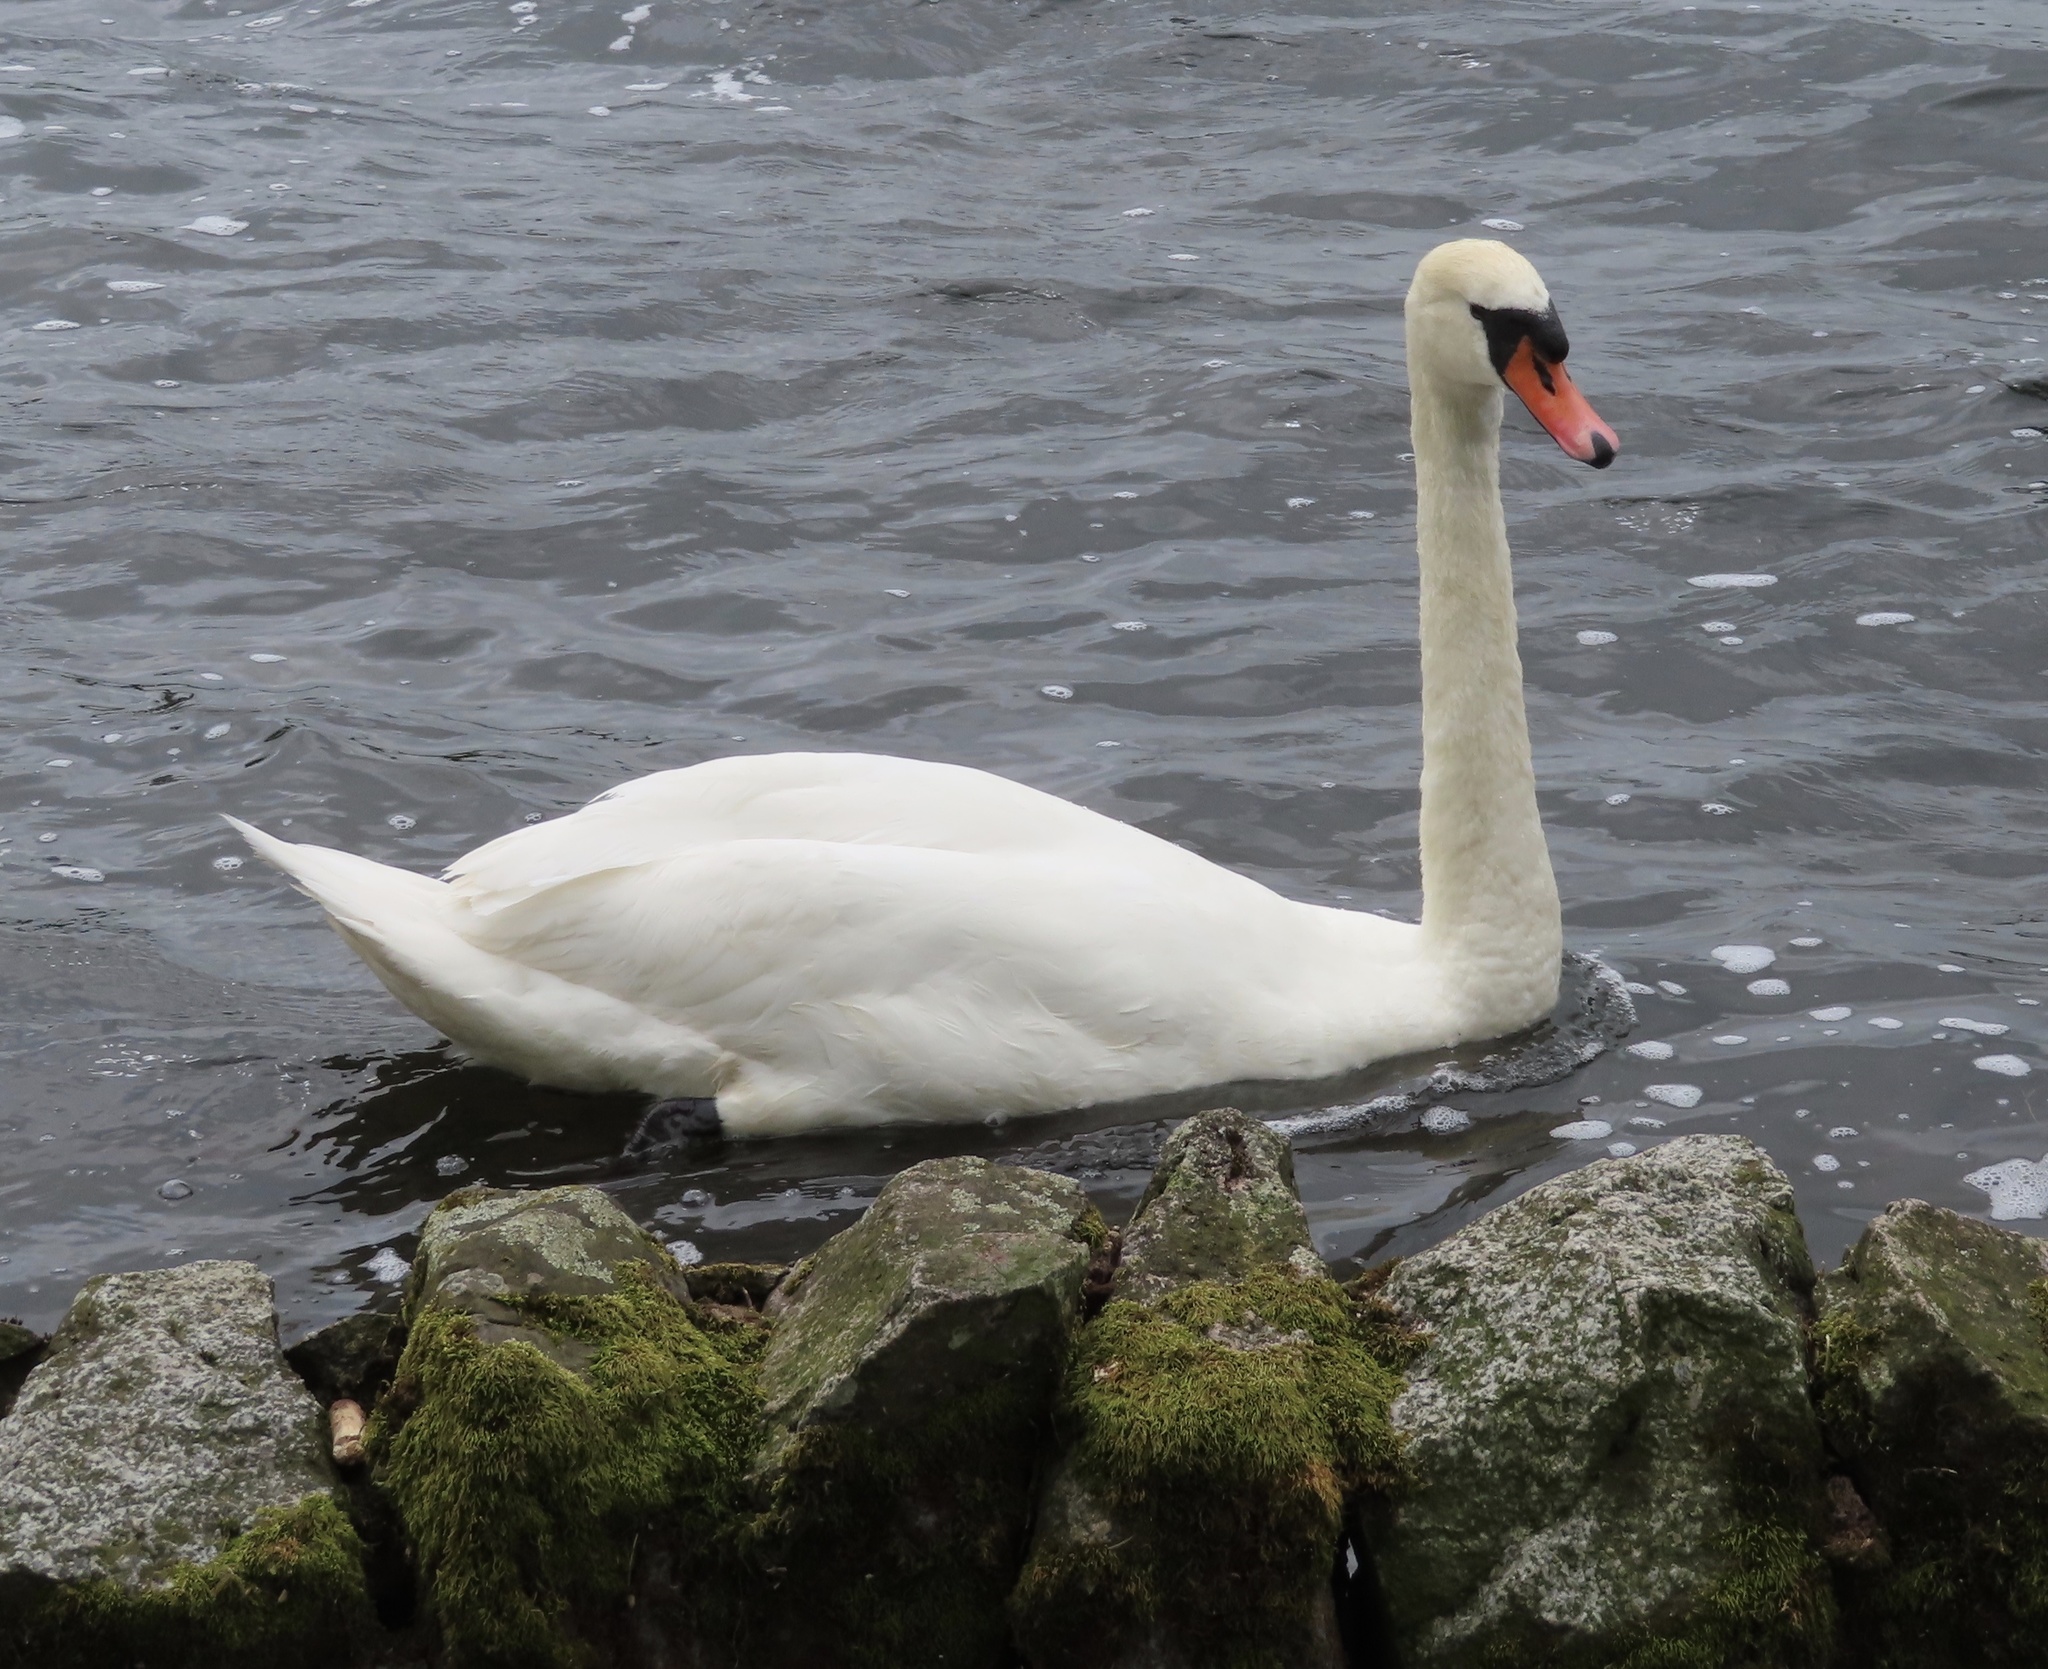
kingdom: Animalia
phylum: Chordata
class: Aves
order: Anseriformes
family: Anatidae
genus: Cygnus
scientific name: Cygnus olor
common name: Mute swan
